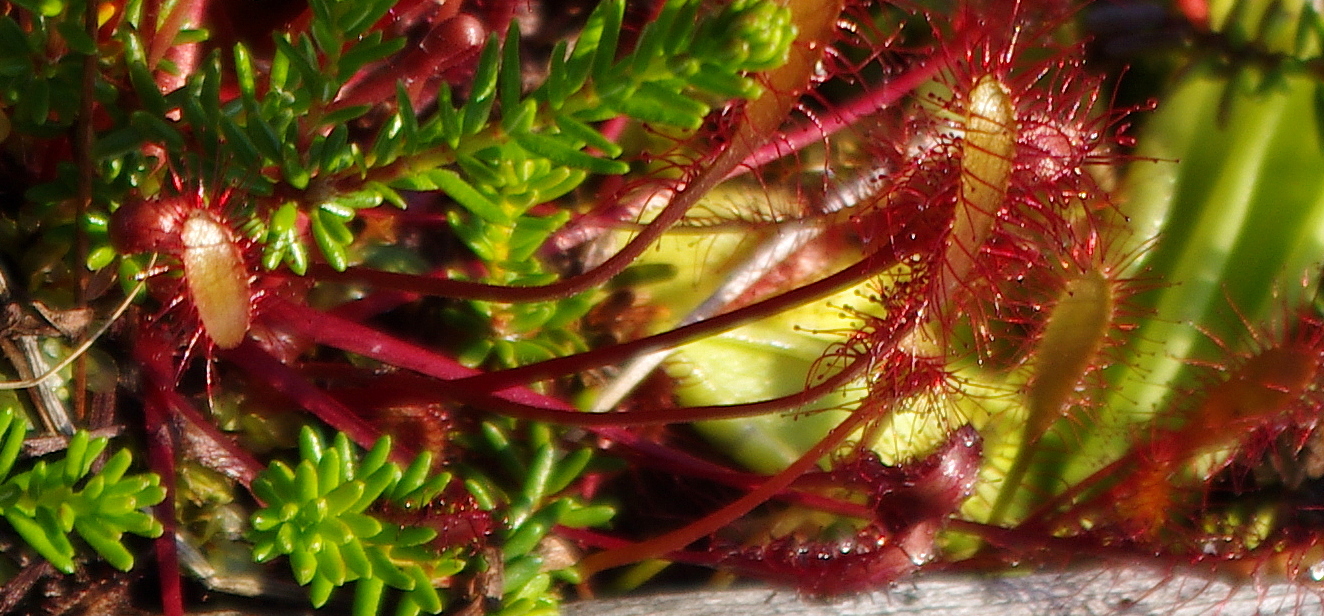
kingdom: Plantae
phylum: Tracheophyta
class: Magnoliopsida
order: Caryophyllales
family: Droseraceae
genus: Drosera
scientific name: Drosera anglica
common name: Great sundew
